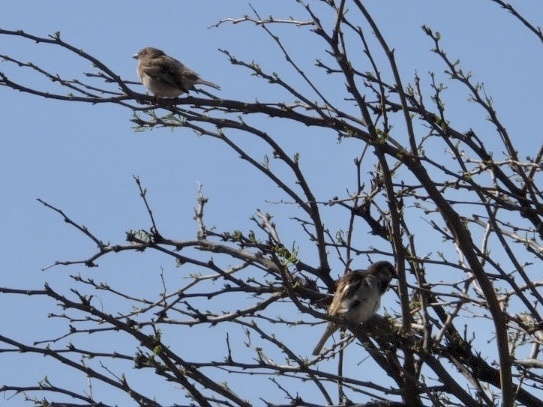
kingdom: Animalia
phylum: Chordata
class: Aves
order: Passeriformes
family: Passeridae
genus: Passer
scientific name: Passer domesticus
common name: House sparrow
